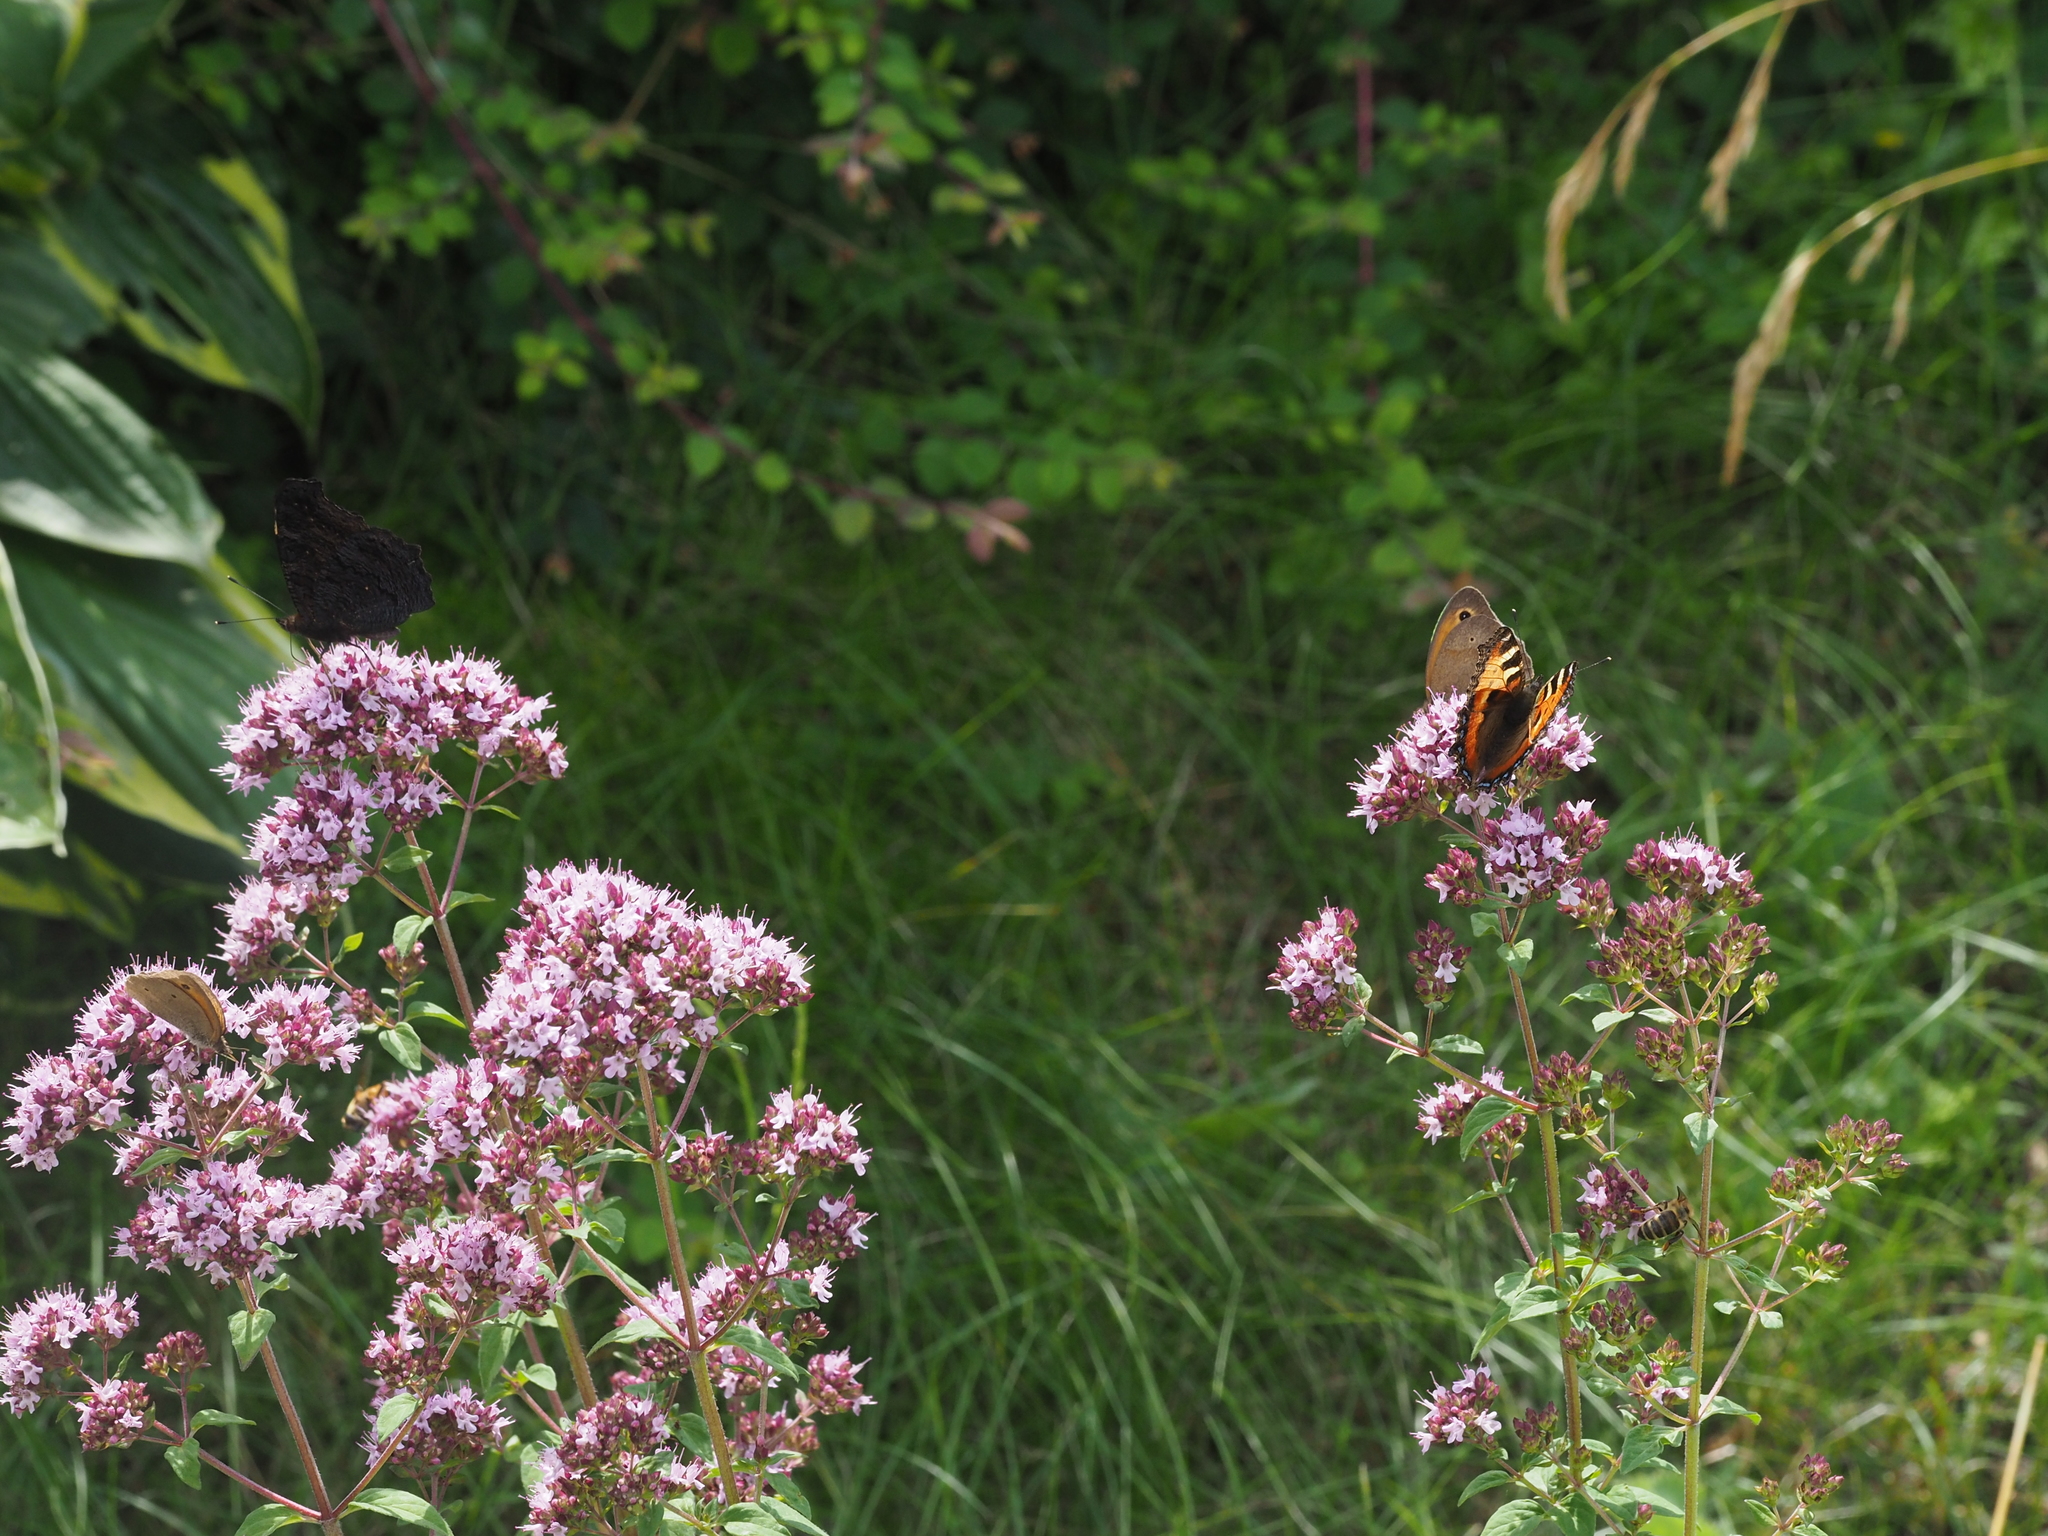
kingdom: Animalia
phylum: Arthropoda
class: Insecta
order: Lepidoptera
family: Nymphalidae
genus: Aglais
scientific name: Aglais urticae
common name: Small tortoiseshell
